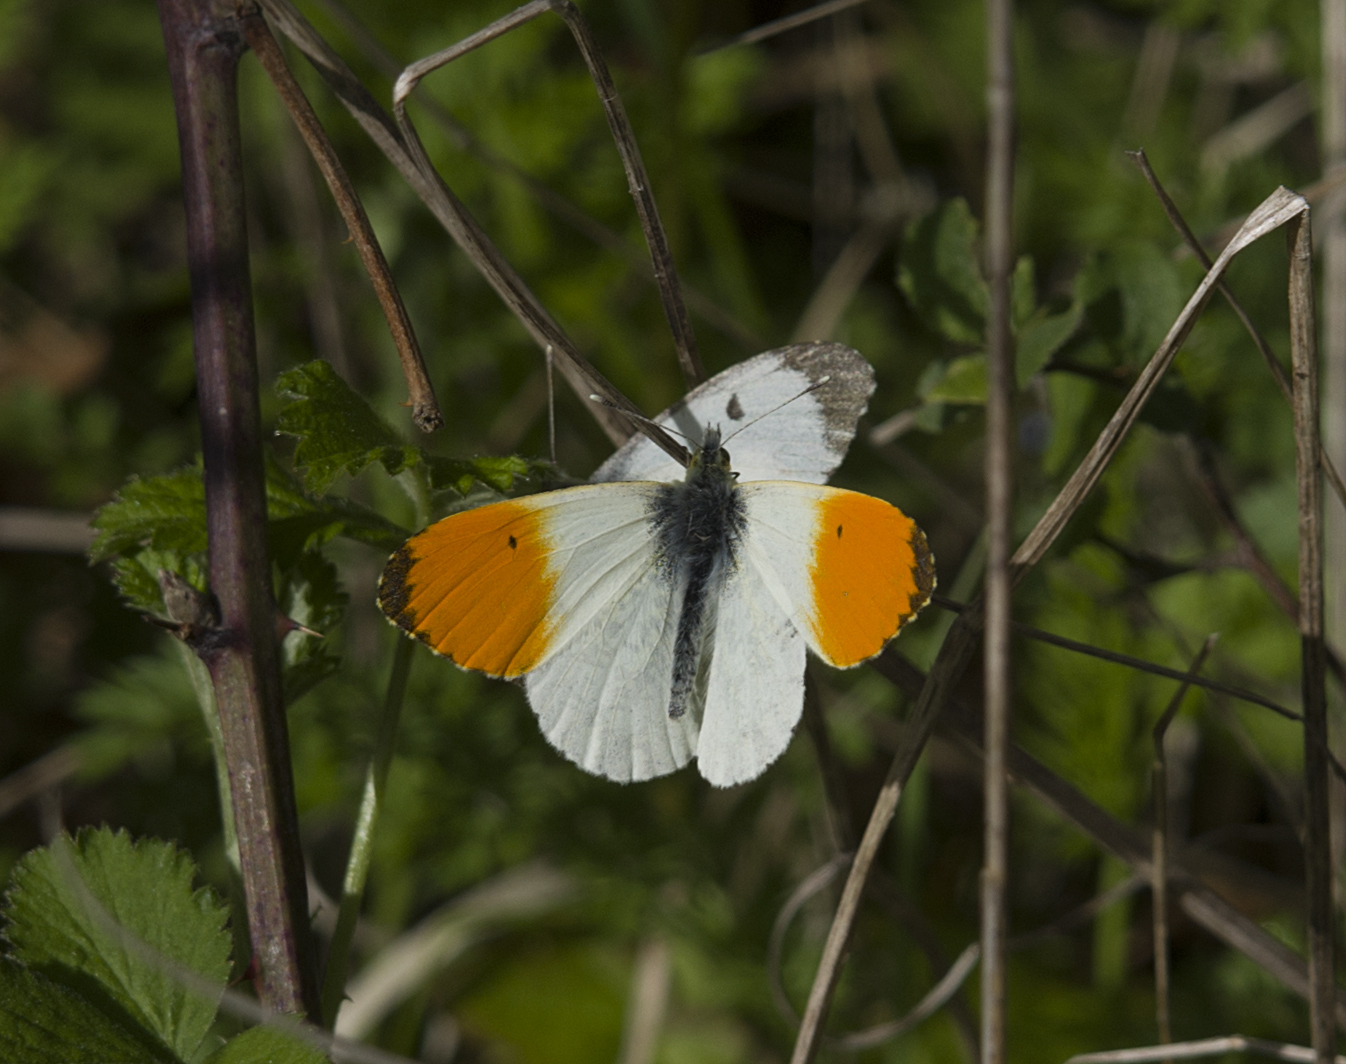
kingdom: Animalia
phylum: Arthropoda
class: Insecta
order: Lepidoptera
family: Pieridae
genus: Anthocharis
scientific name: Anthocharis cardamines
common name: Orange-tip
